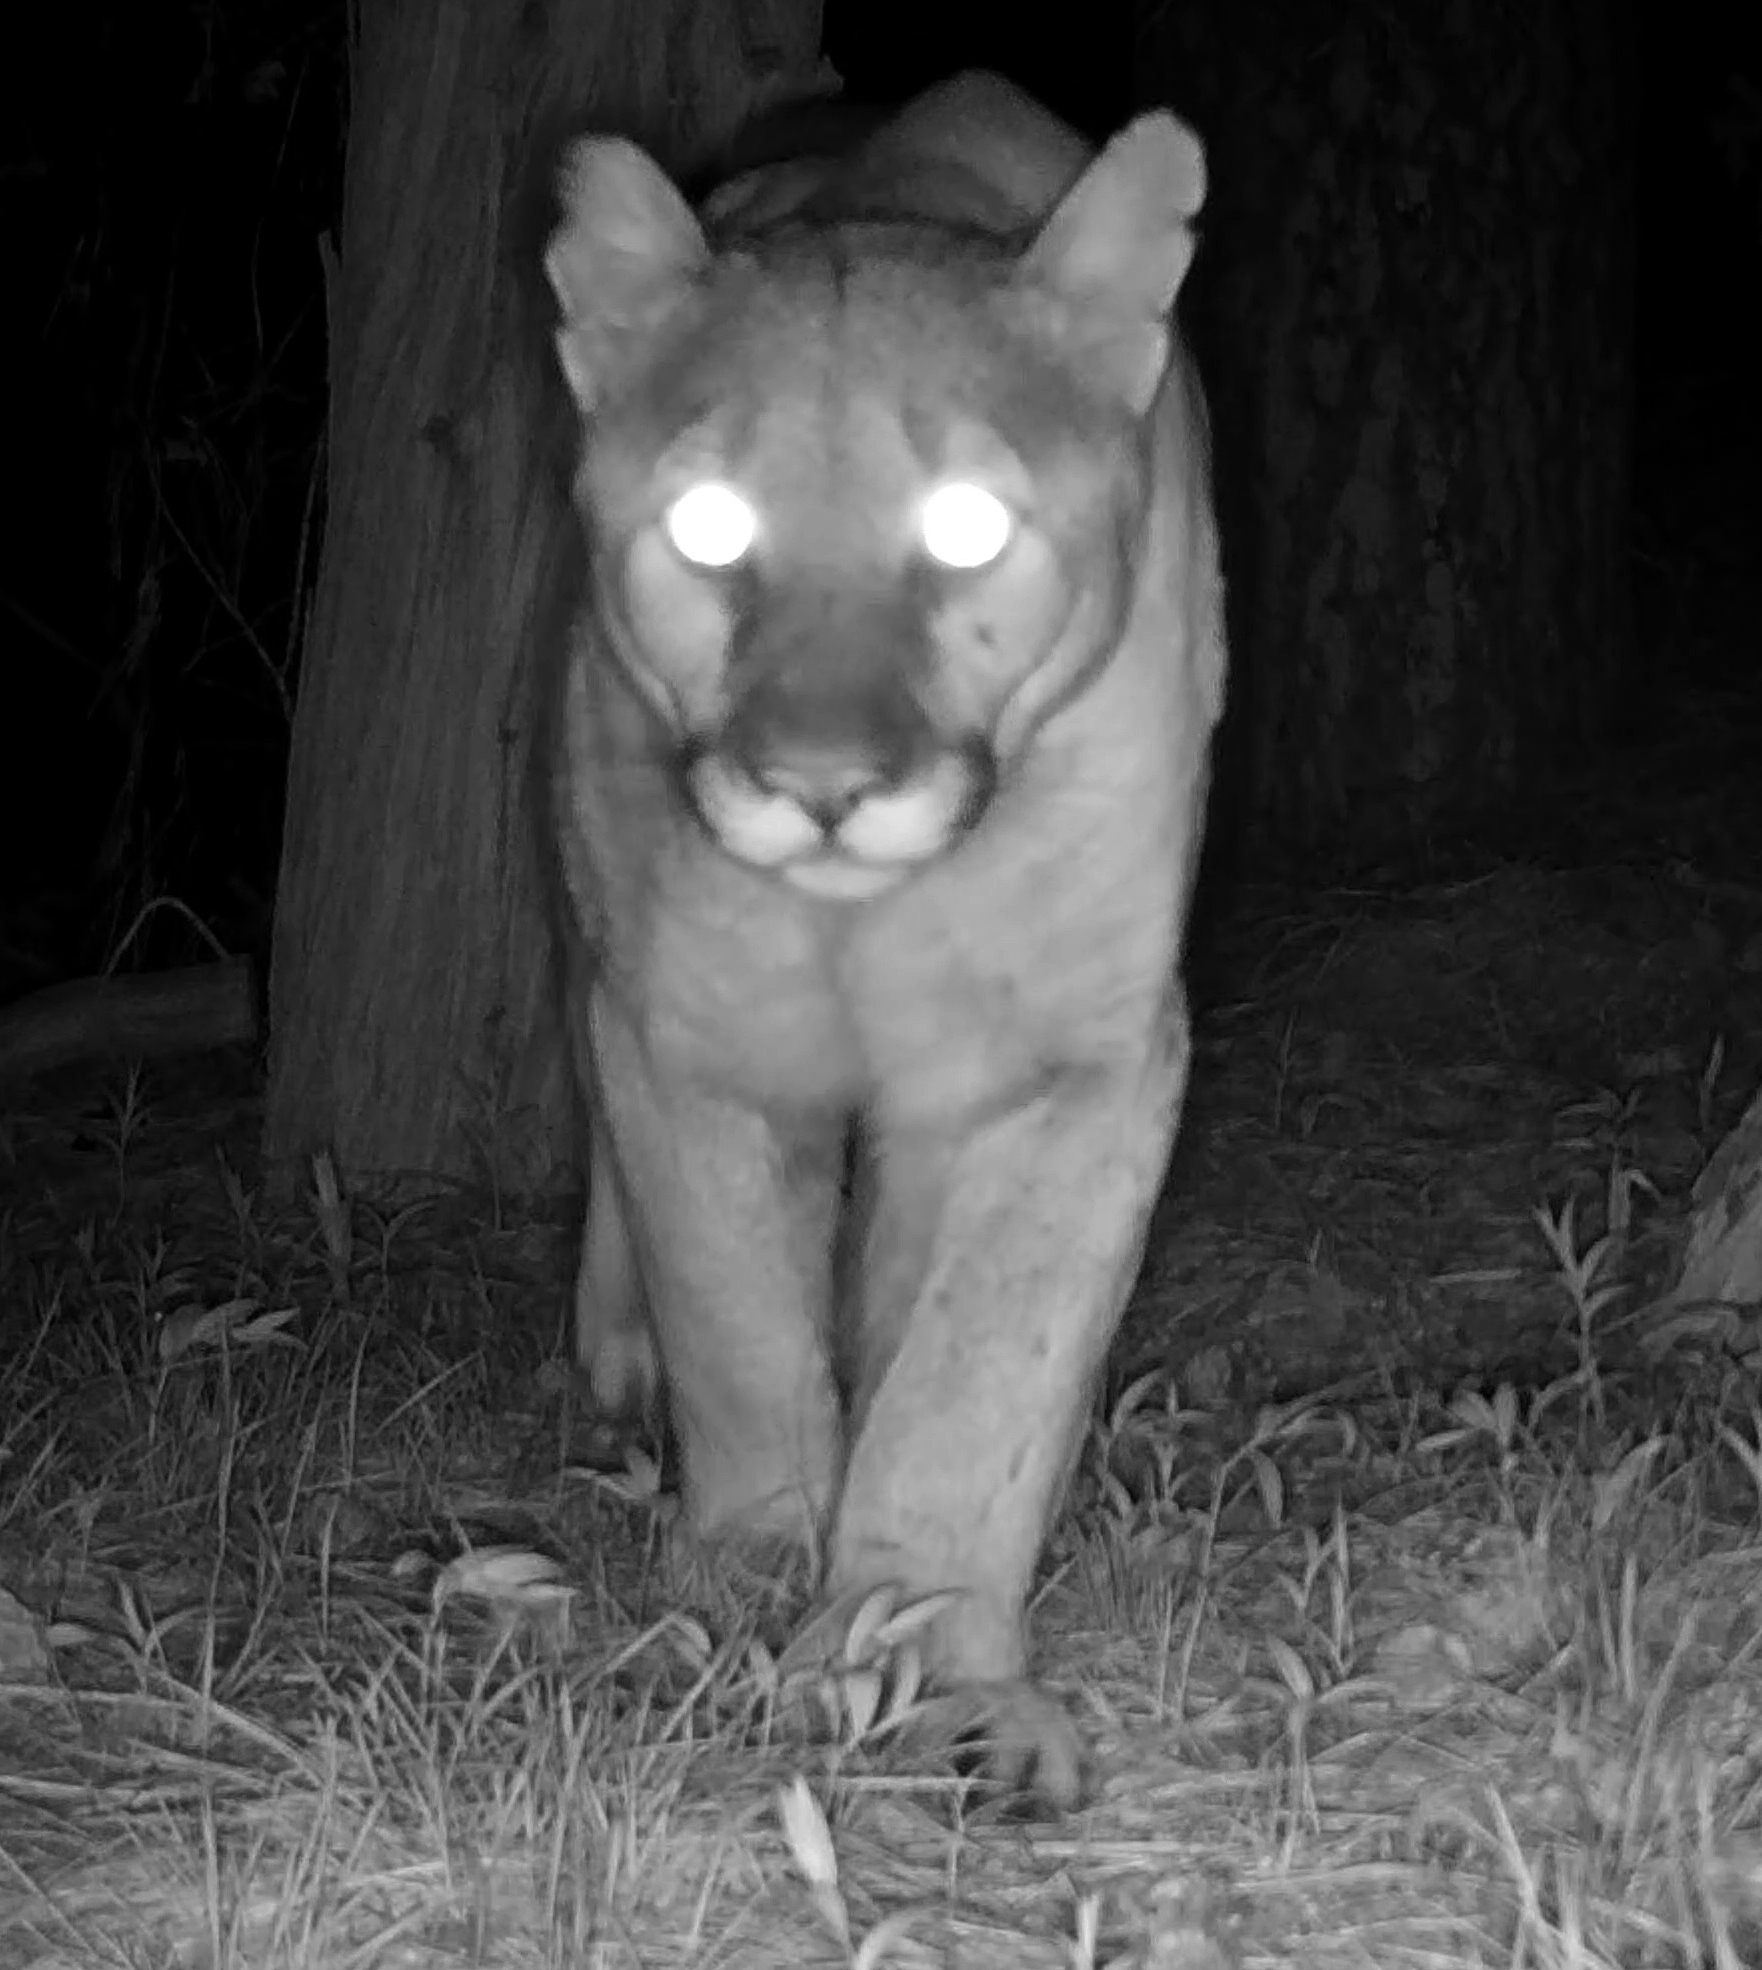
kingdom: Animalia
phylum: Chordata
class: Mammalia
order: Carnivora
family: Felidae
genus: Puma
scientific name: Puma concolor
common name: Puma
